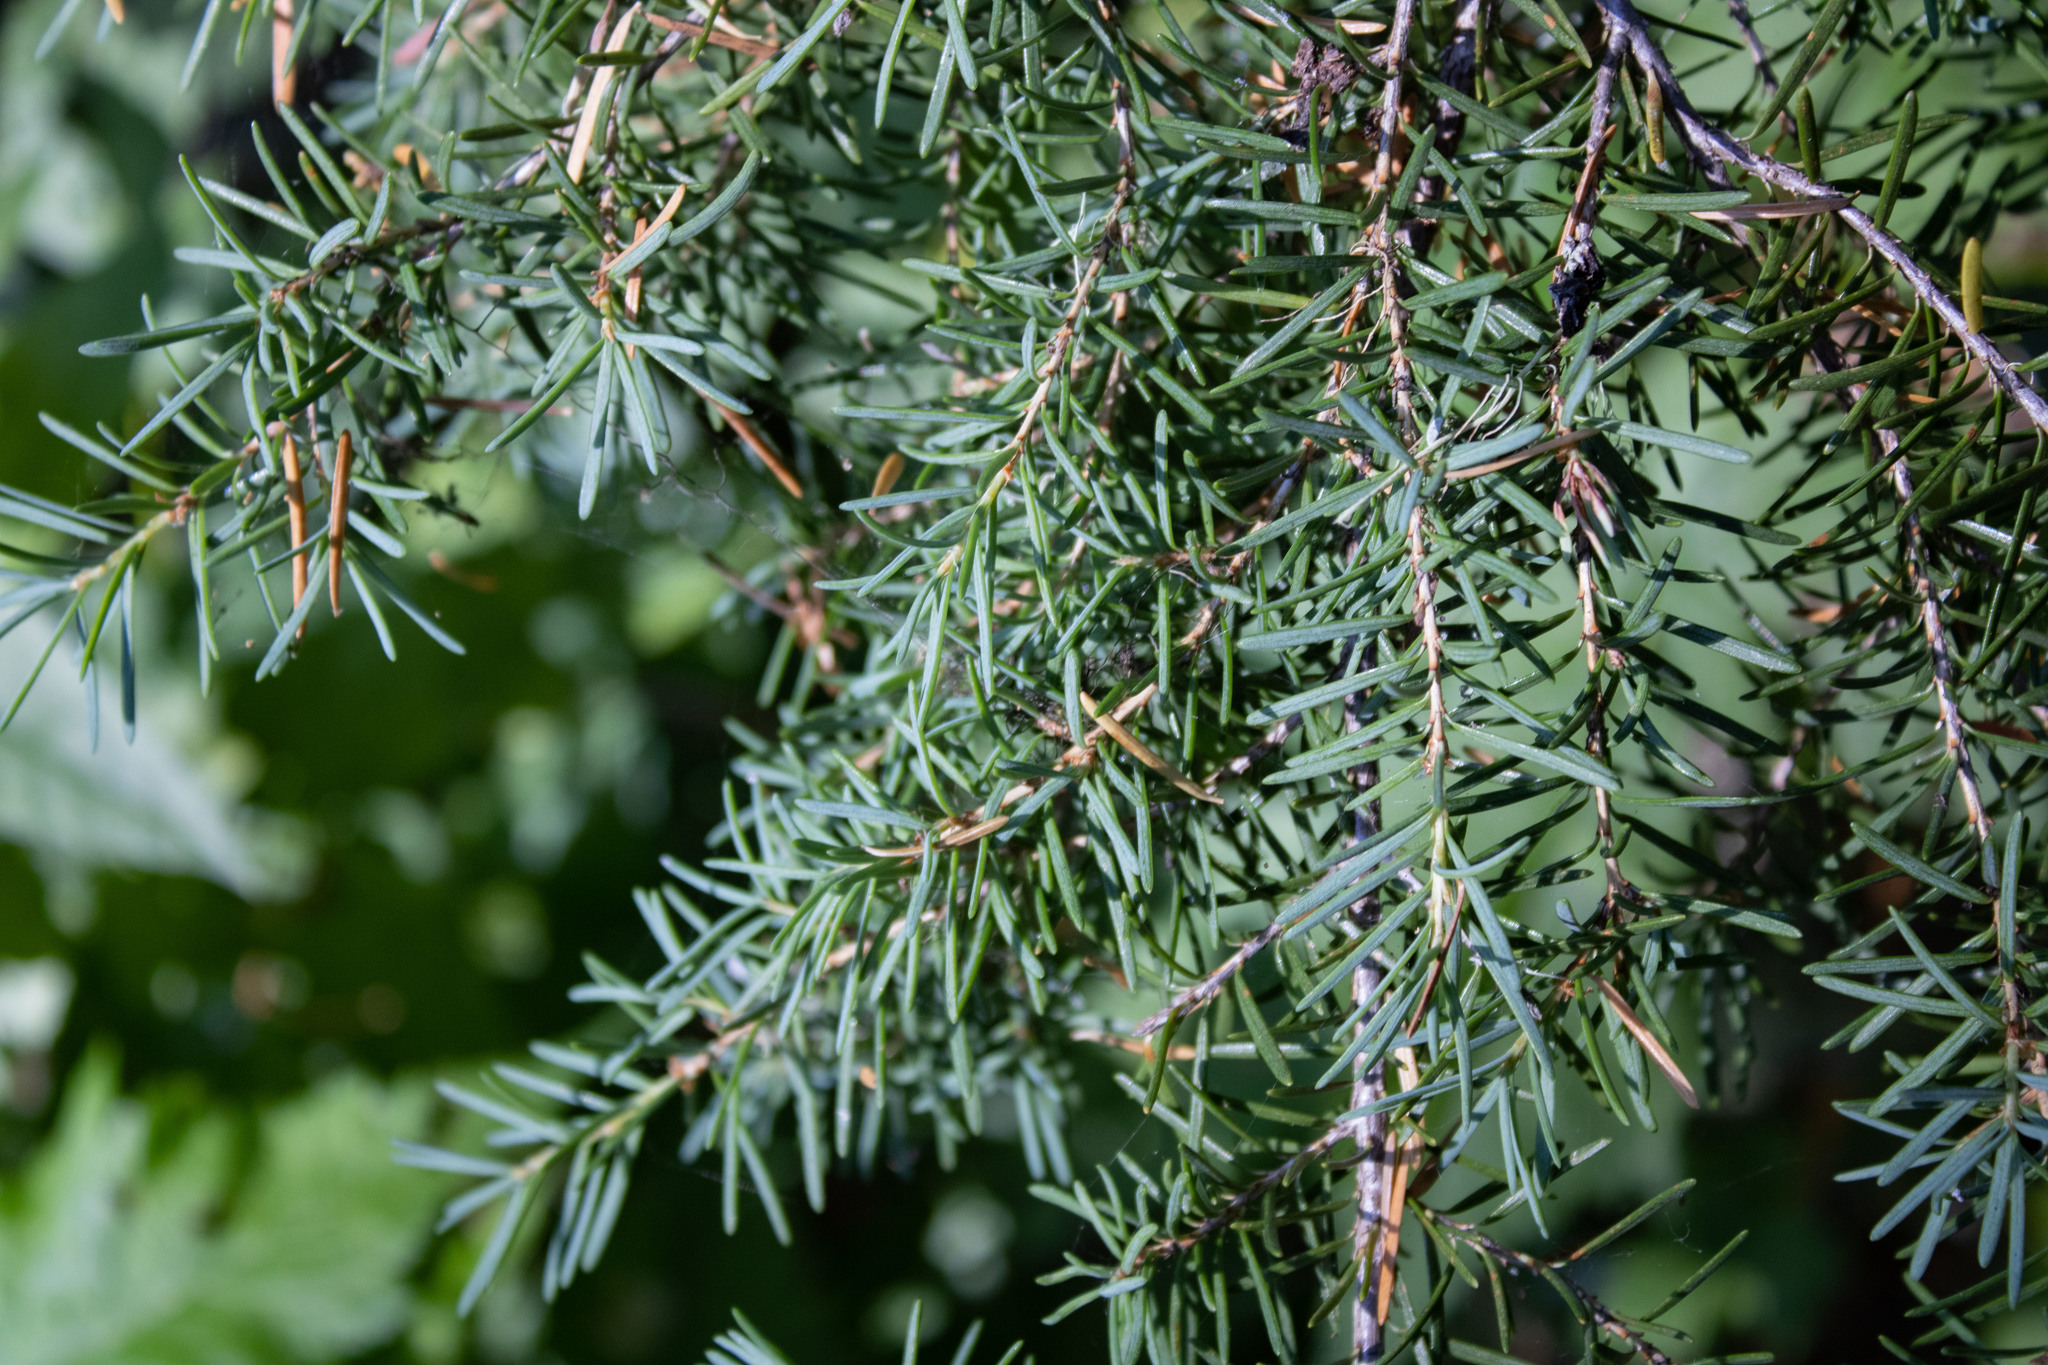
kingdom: Plantae
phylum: Tracheophyta
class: Pinopsida
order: Pinales
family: Pinaceae
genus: Tsuga
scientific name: Tsuga mertensiana
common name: Mountain hemlock
